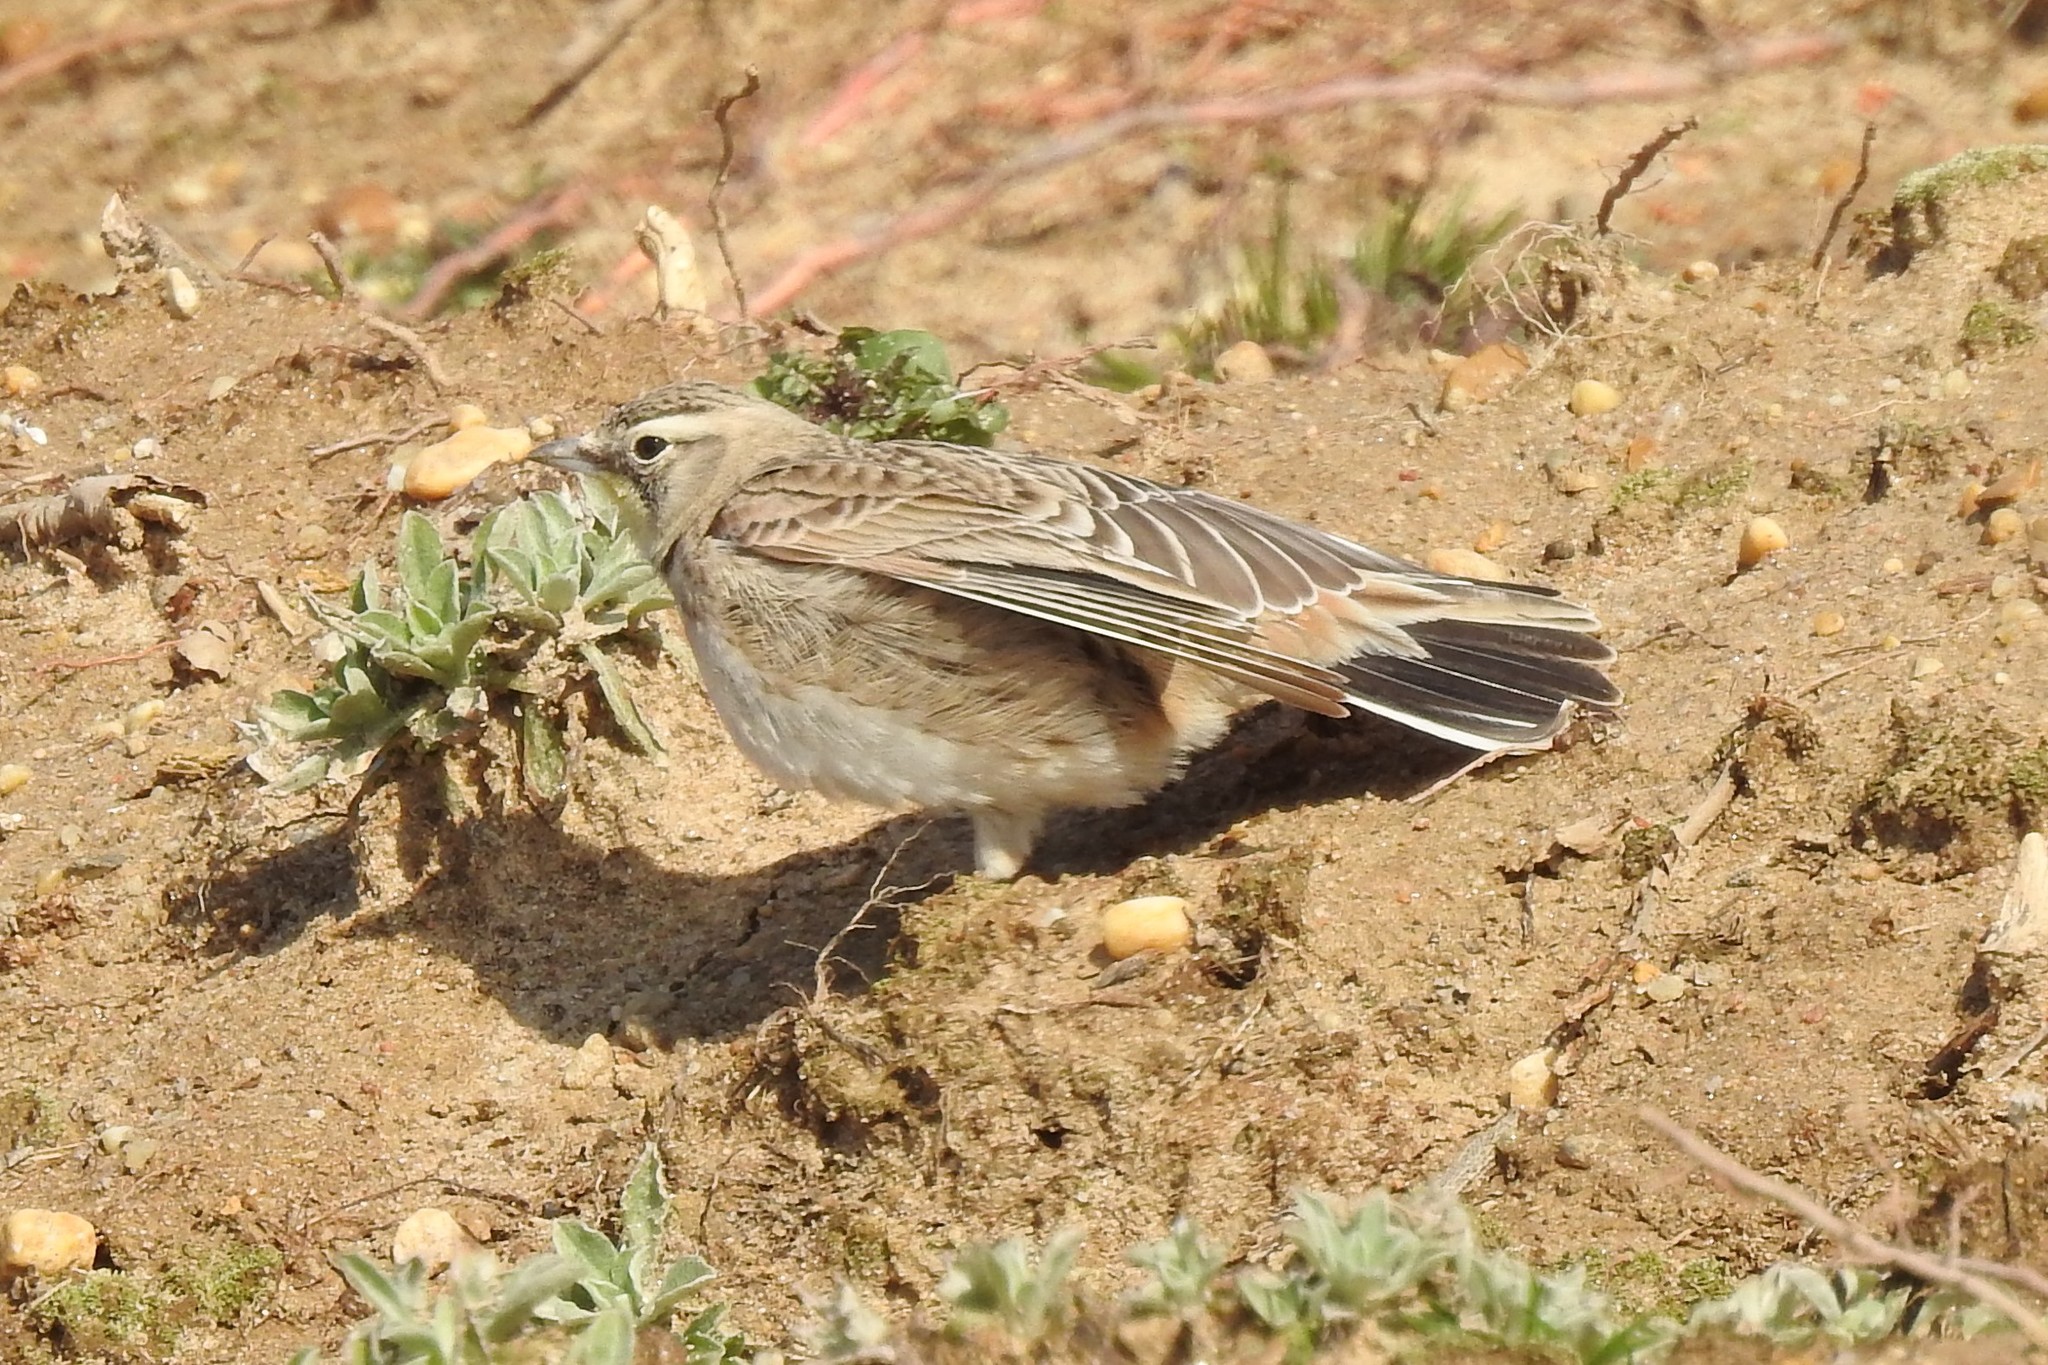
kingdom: Animalia
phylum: Chordata
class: Aves
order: Passeriformes
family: Alaudidae
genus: Eremophila
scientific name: Eremophila alpestris
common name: Horned lark
